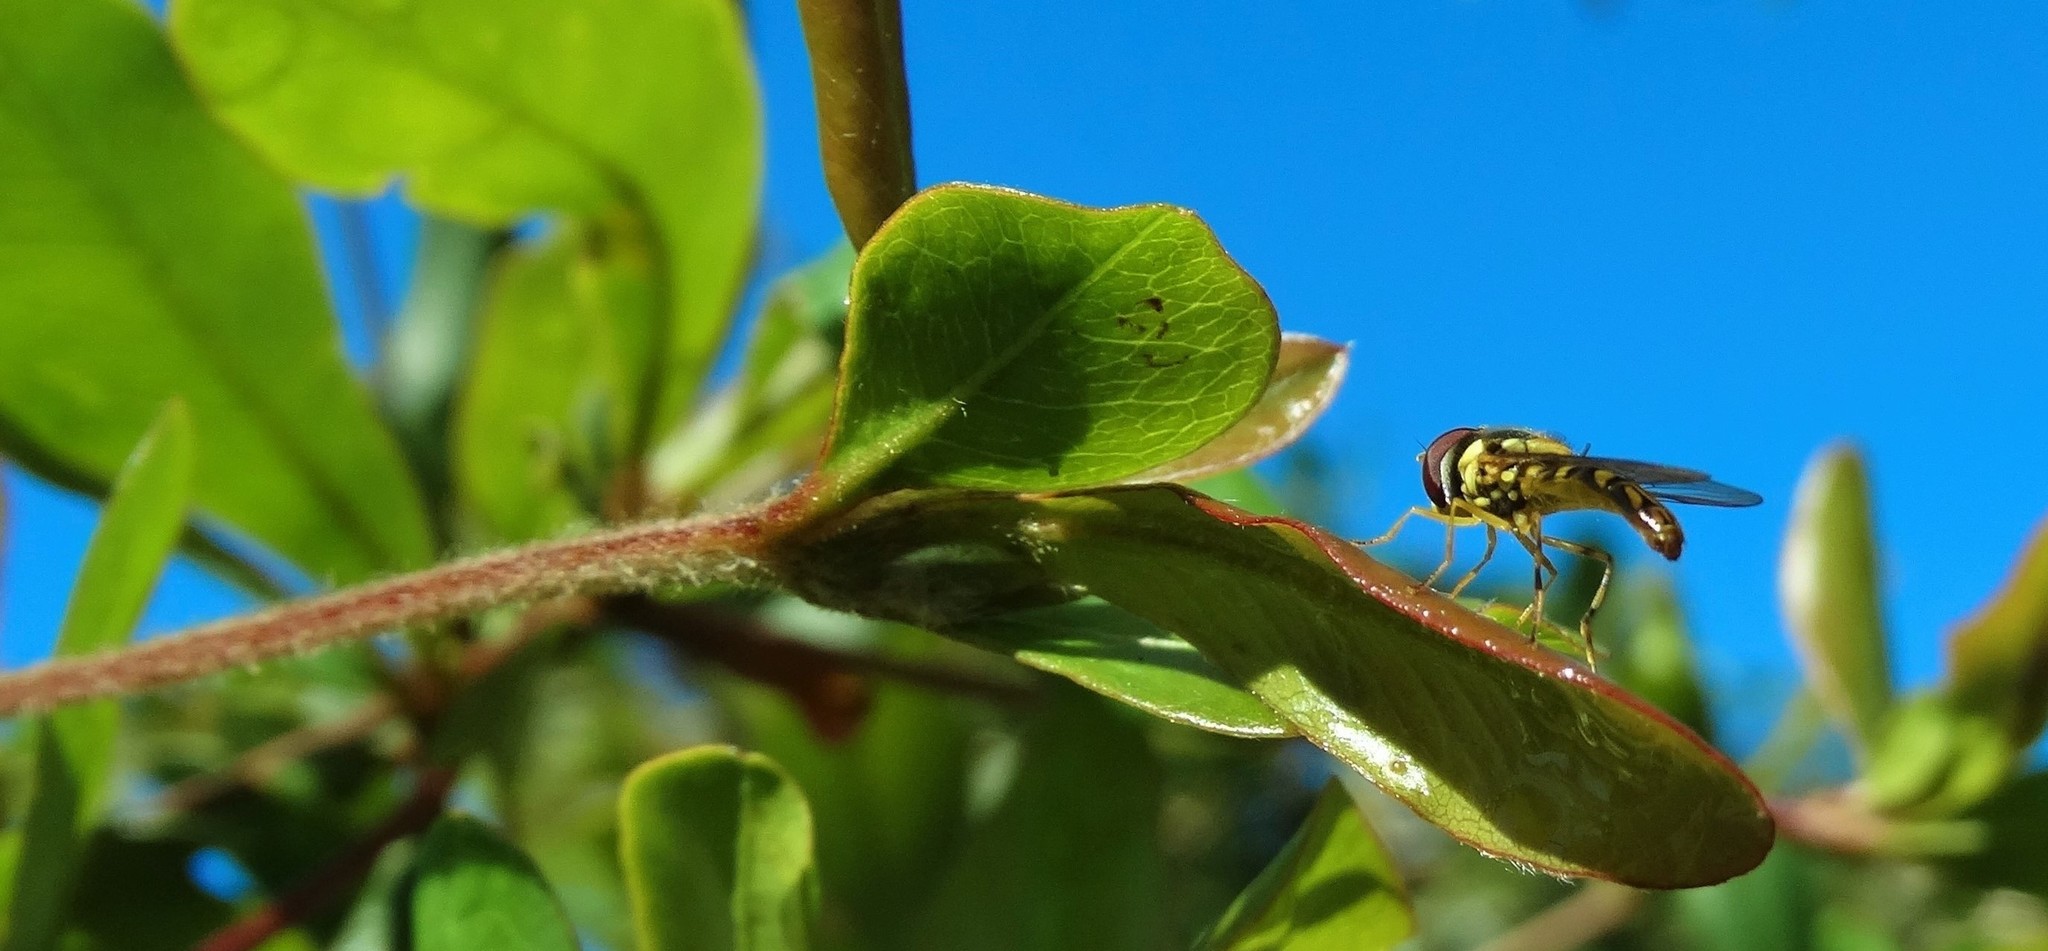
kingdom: Animalia
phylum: Arthropoda
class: Insecta
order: Diptera
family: Syrphidae
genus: Allograpta
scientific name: Allograpta obliqua
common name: Common oblique syrphid
